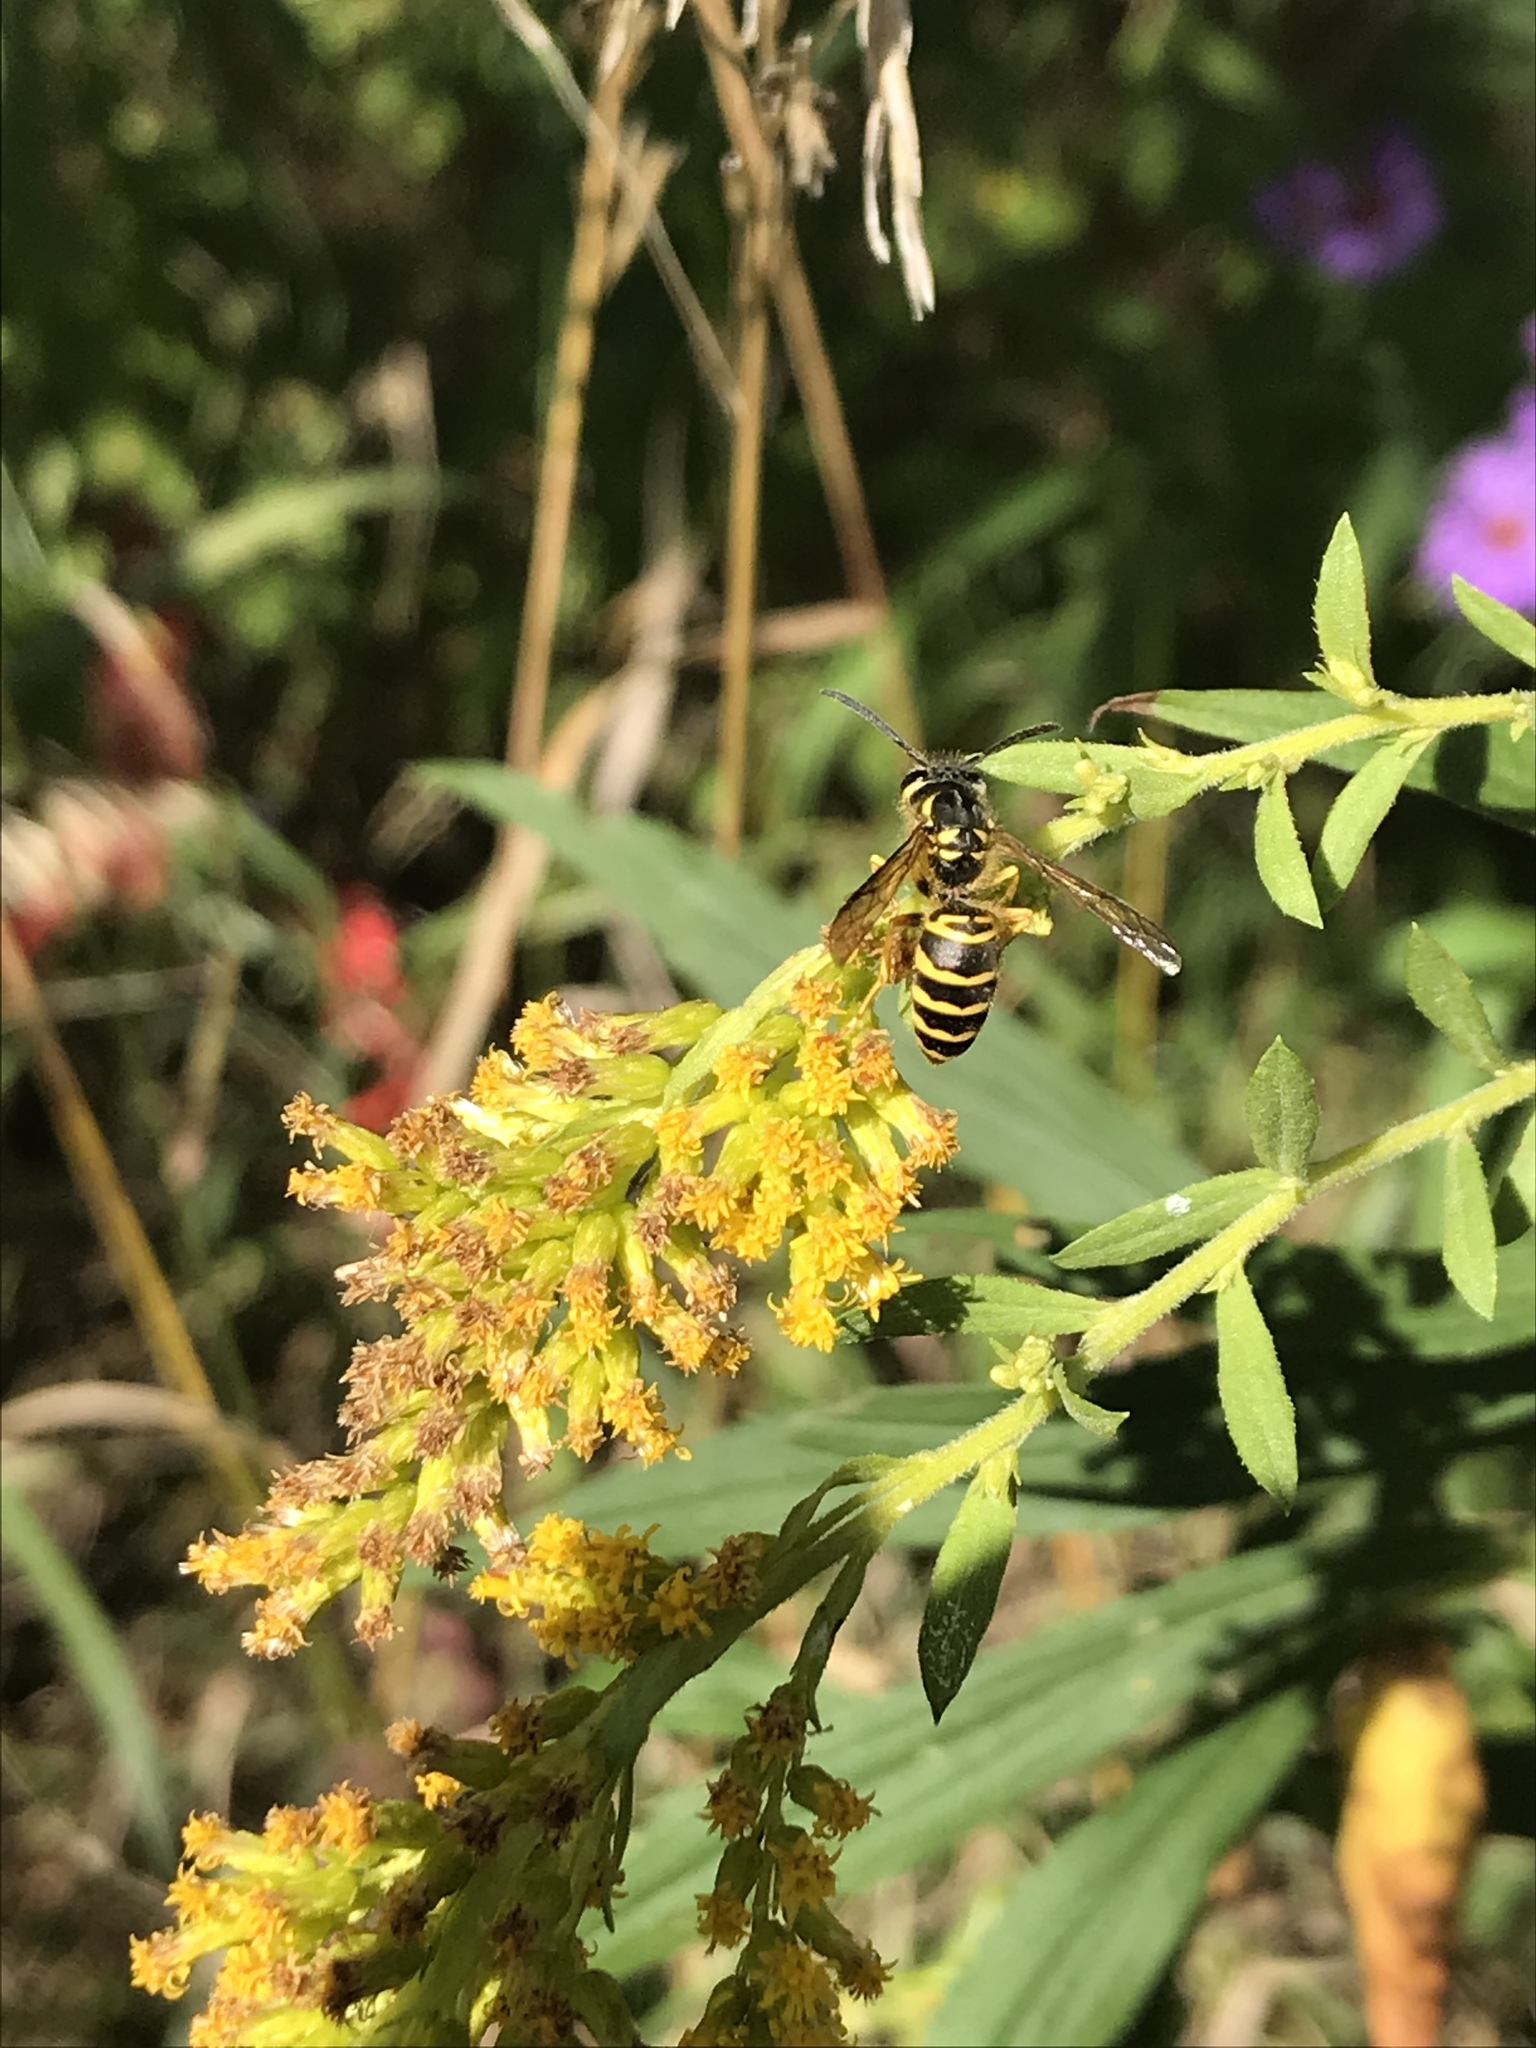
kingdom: Animalia
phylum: Arthropoda
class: Insecta
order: Hymenoptera
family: Vespidae
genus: Vespula
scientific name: Vespula maculifrons
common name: Eastern yellowjacket
